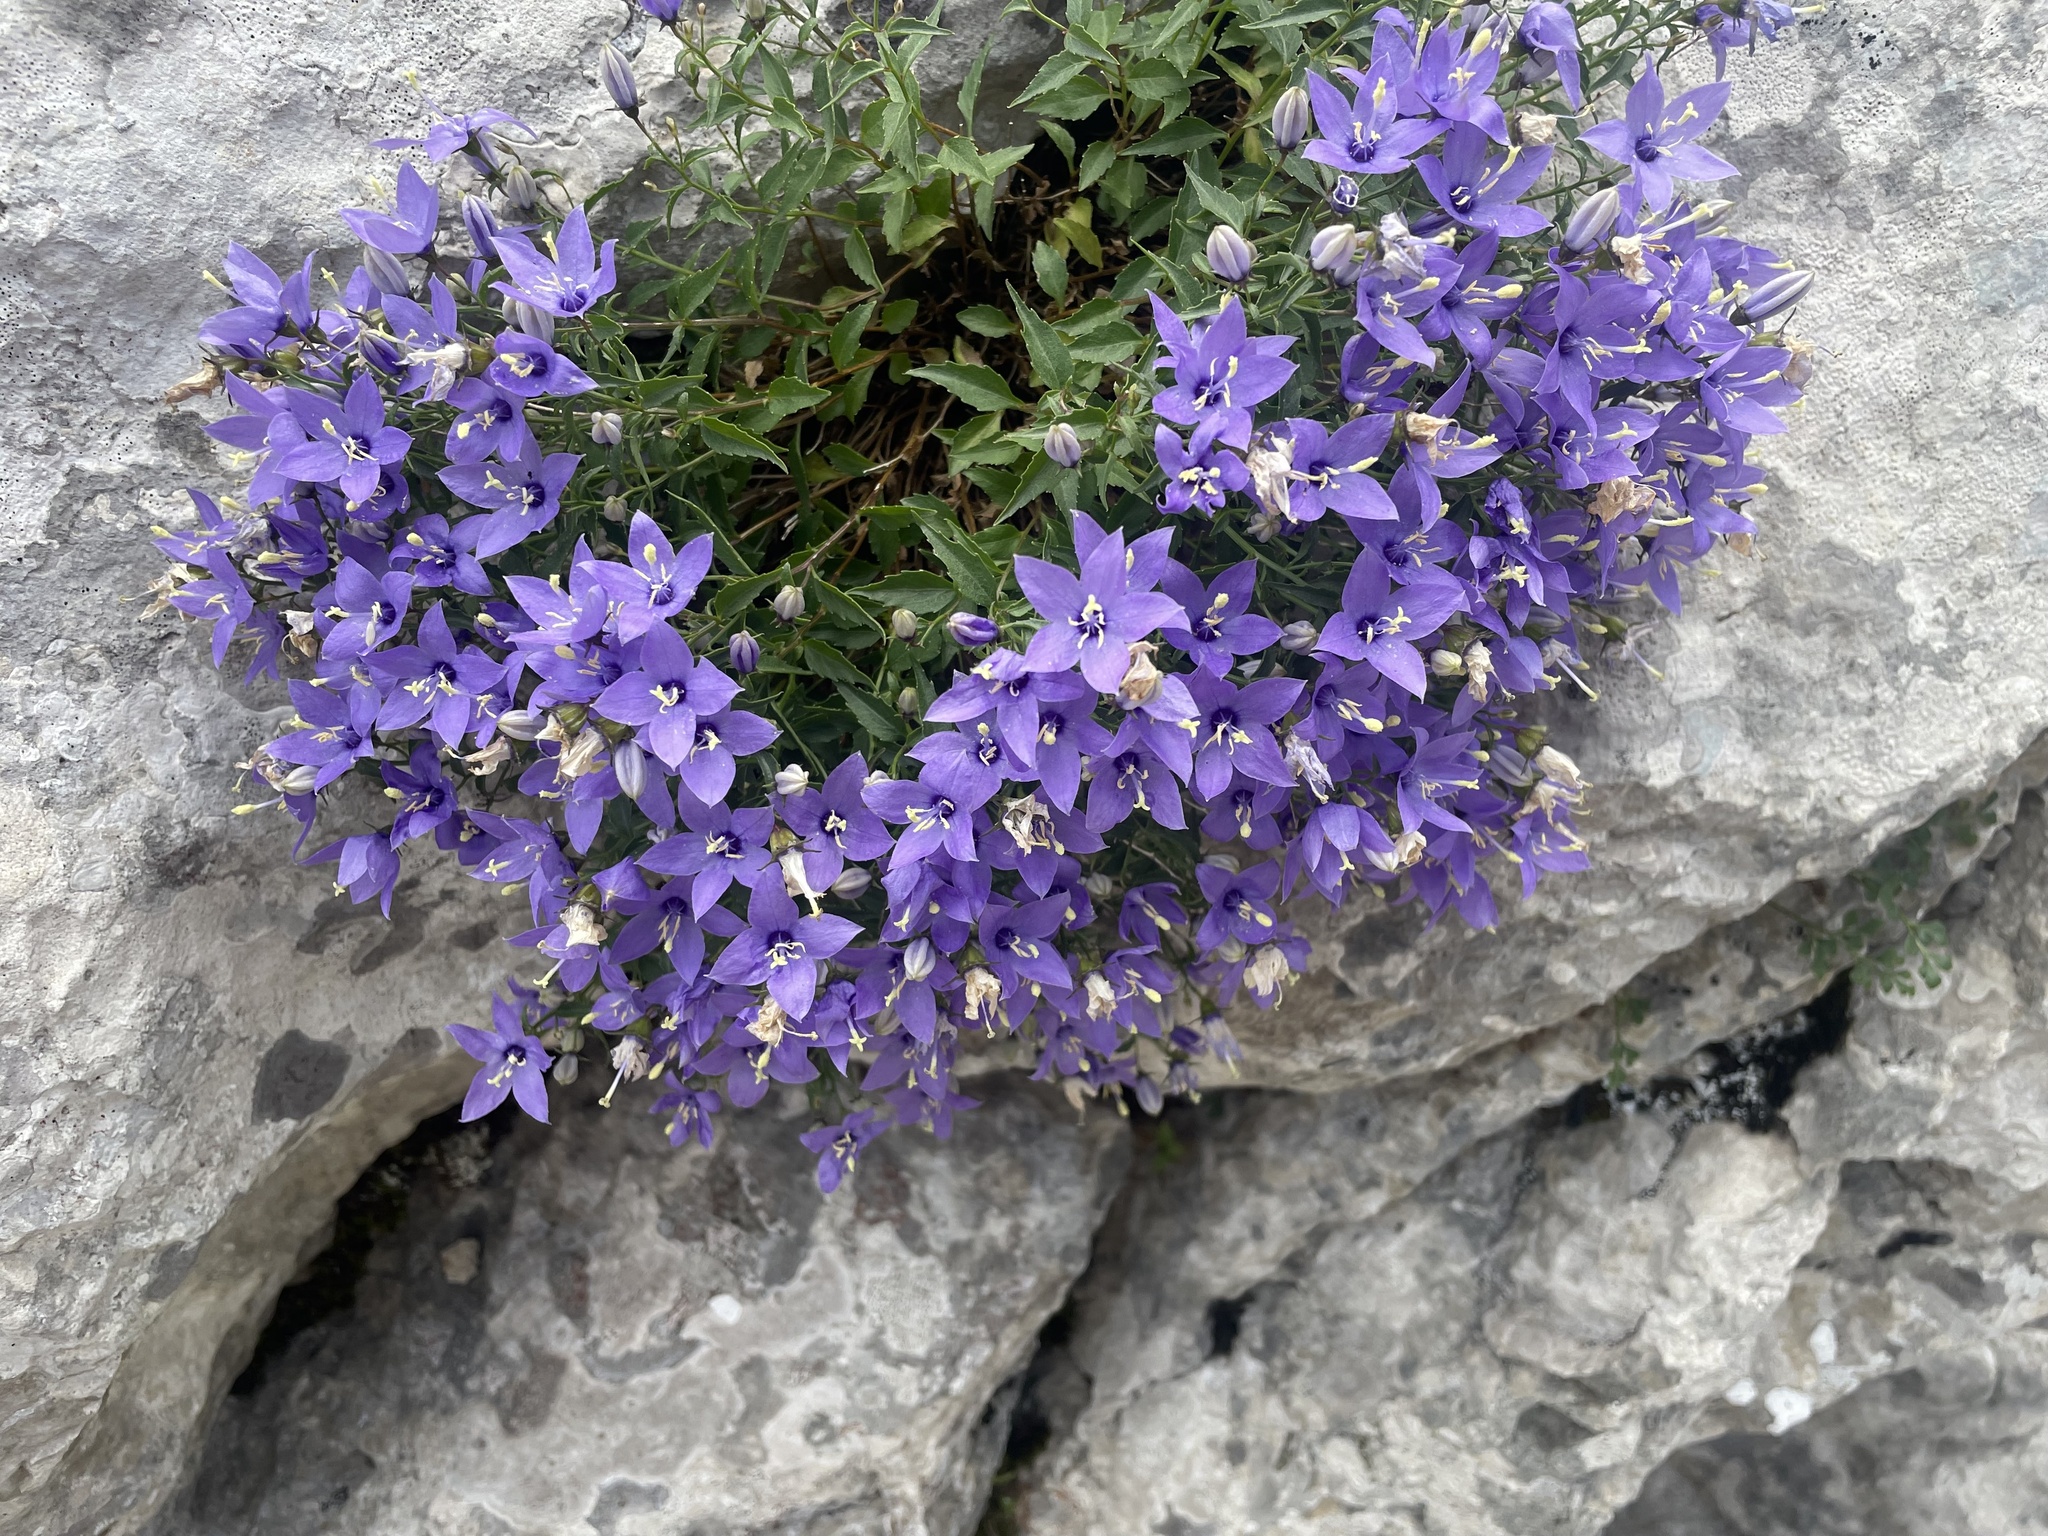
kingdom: Plantae
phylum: Tracheophyta
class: Magnoliopsida
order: Asterales
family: Campanulaceae
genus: Campanula
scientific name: Campanula waldsteiniana
